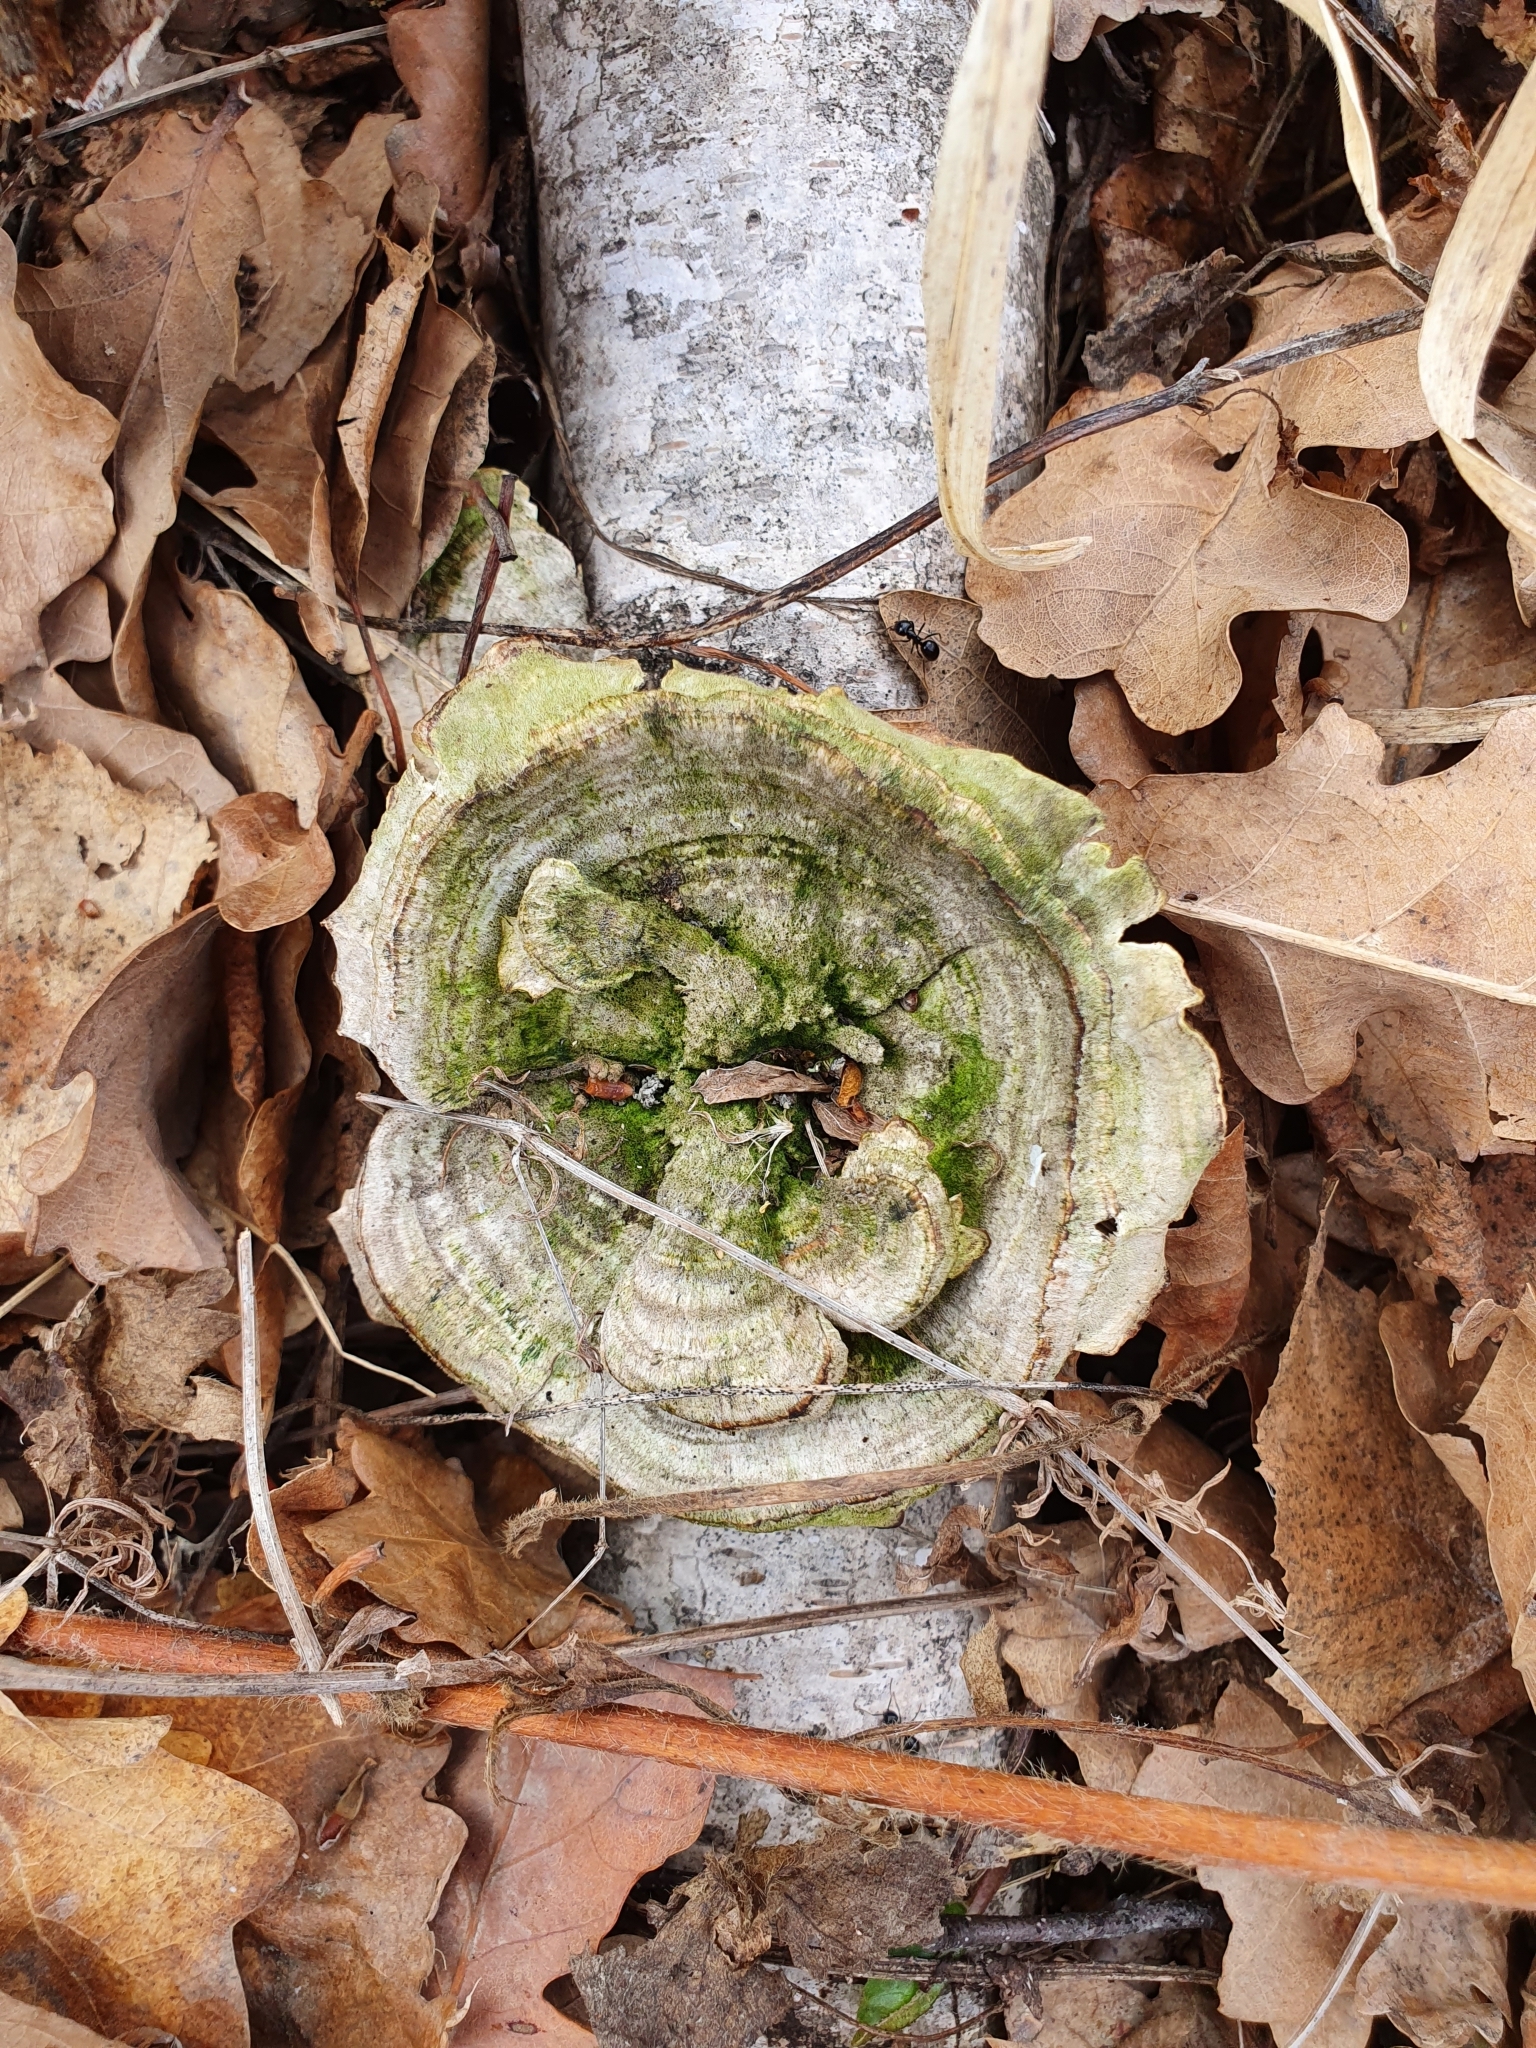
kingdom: Fungi
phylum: Basidiomycota
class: Agaricomycetes
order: Polyporales
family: Polyporaceae
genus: Lenzites
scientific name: Lenzites betulinus
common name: Birch mazegill
